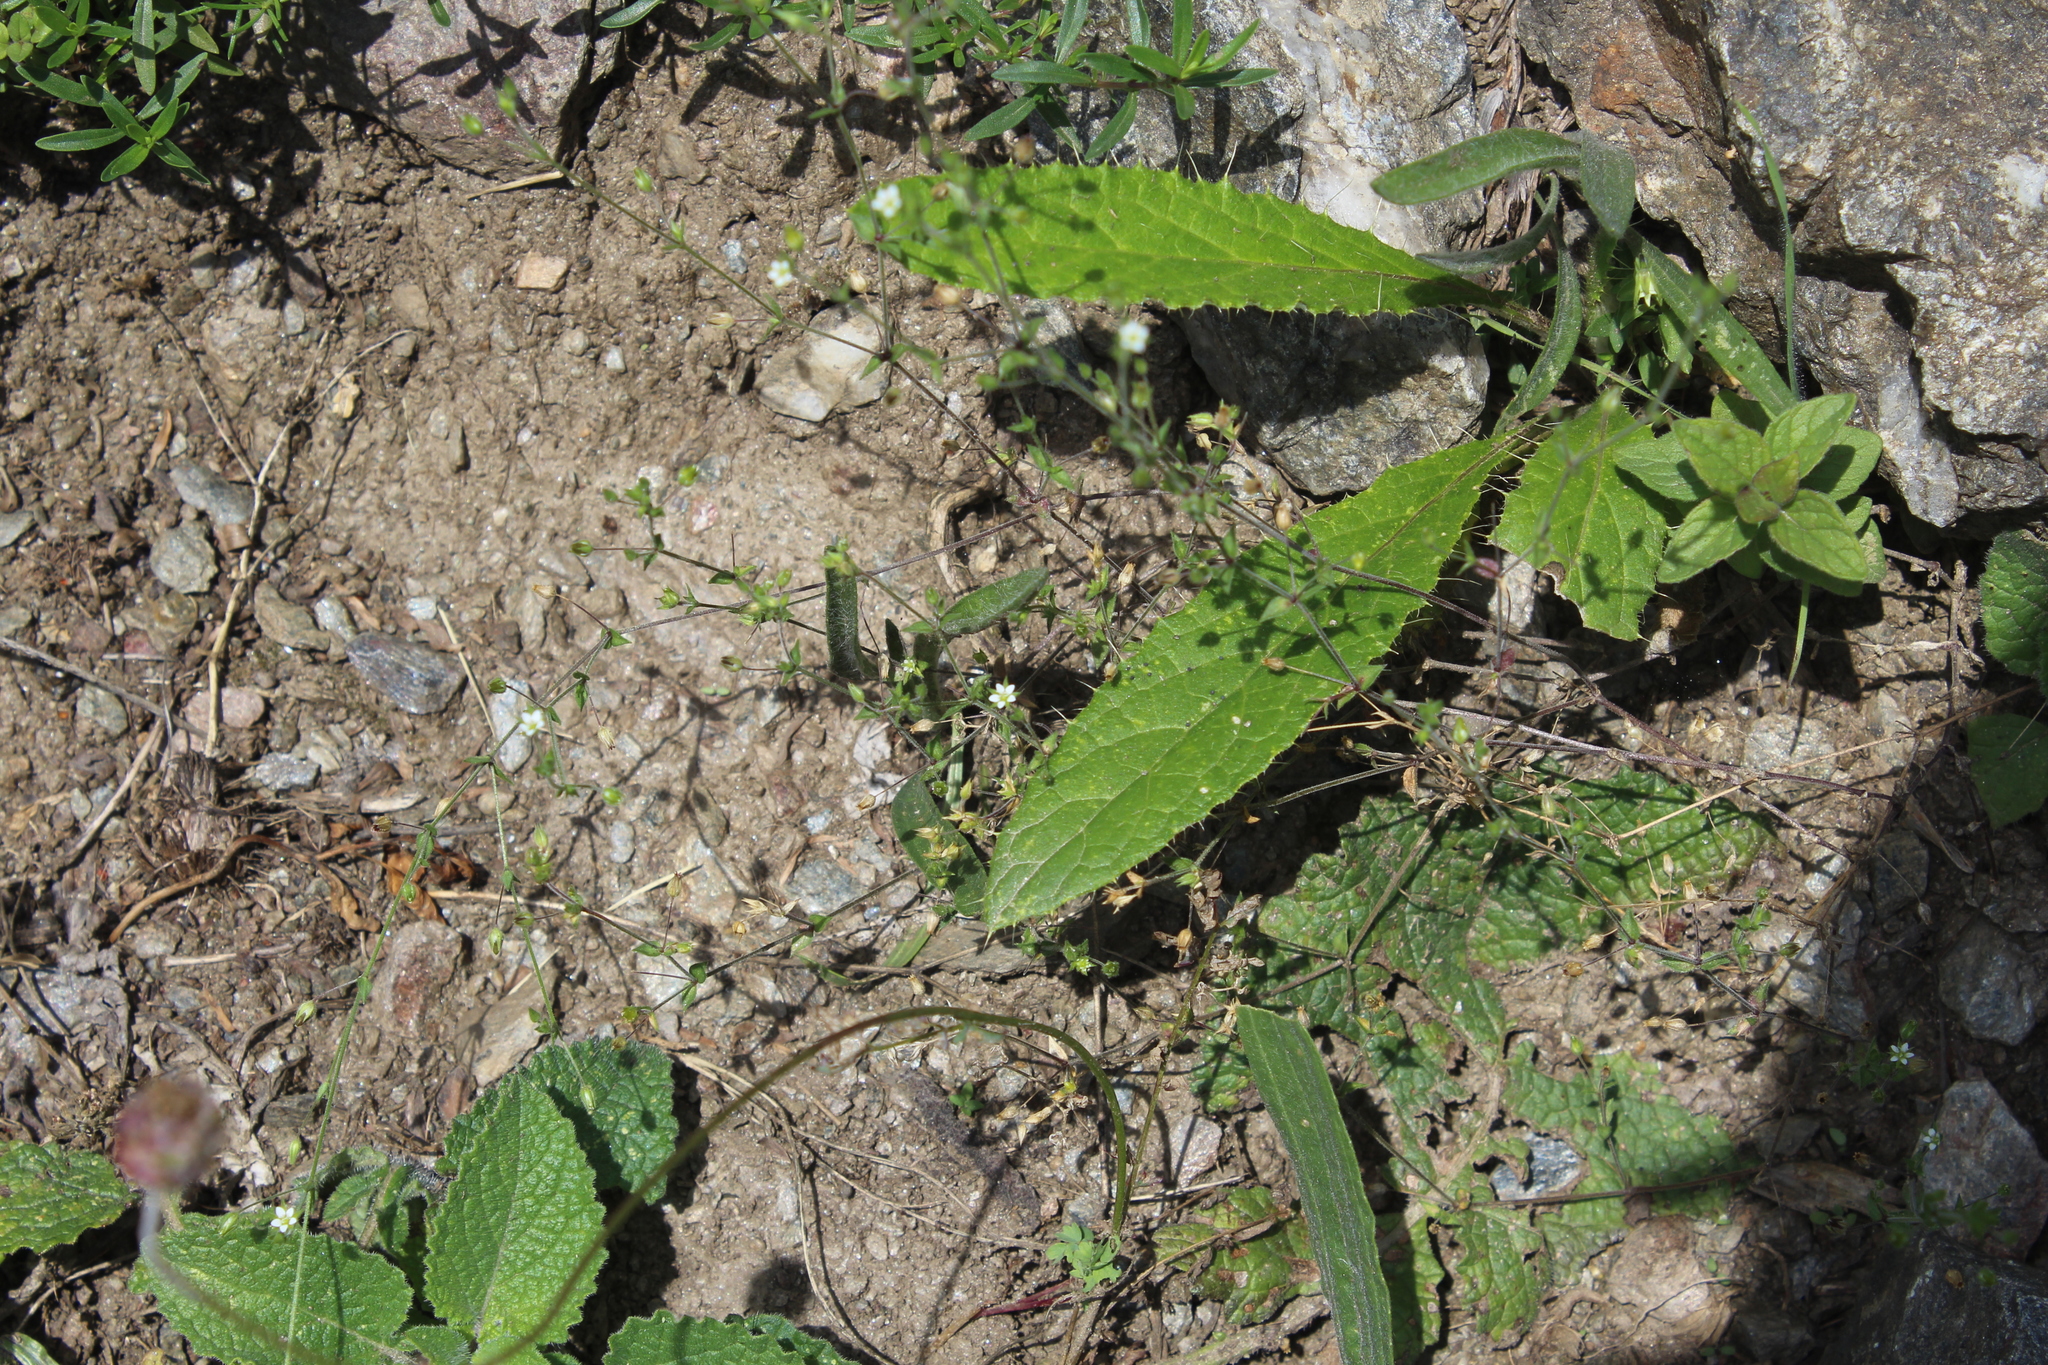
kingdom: Plantae
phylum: Tracheophyta
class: Magnoliopsida
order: Caryophyllales
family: Caryophyllaceae
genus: Arenaria
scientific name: Arenaria serpyllifolia
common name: Thyme-leaved sandwort
